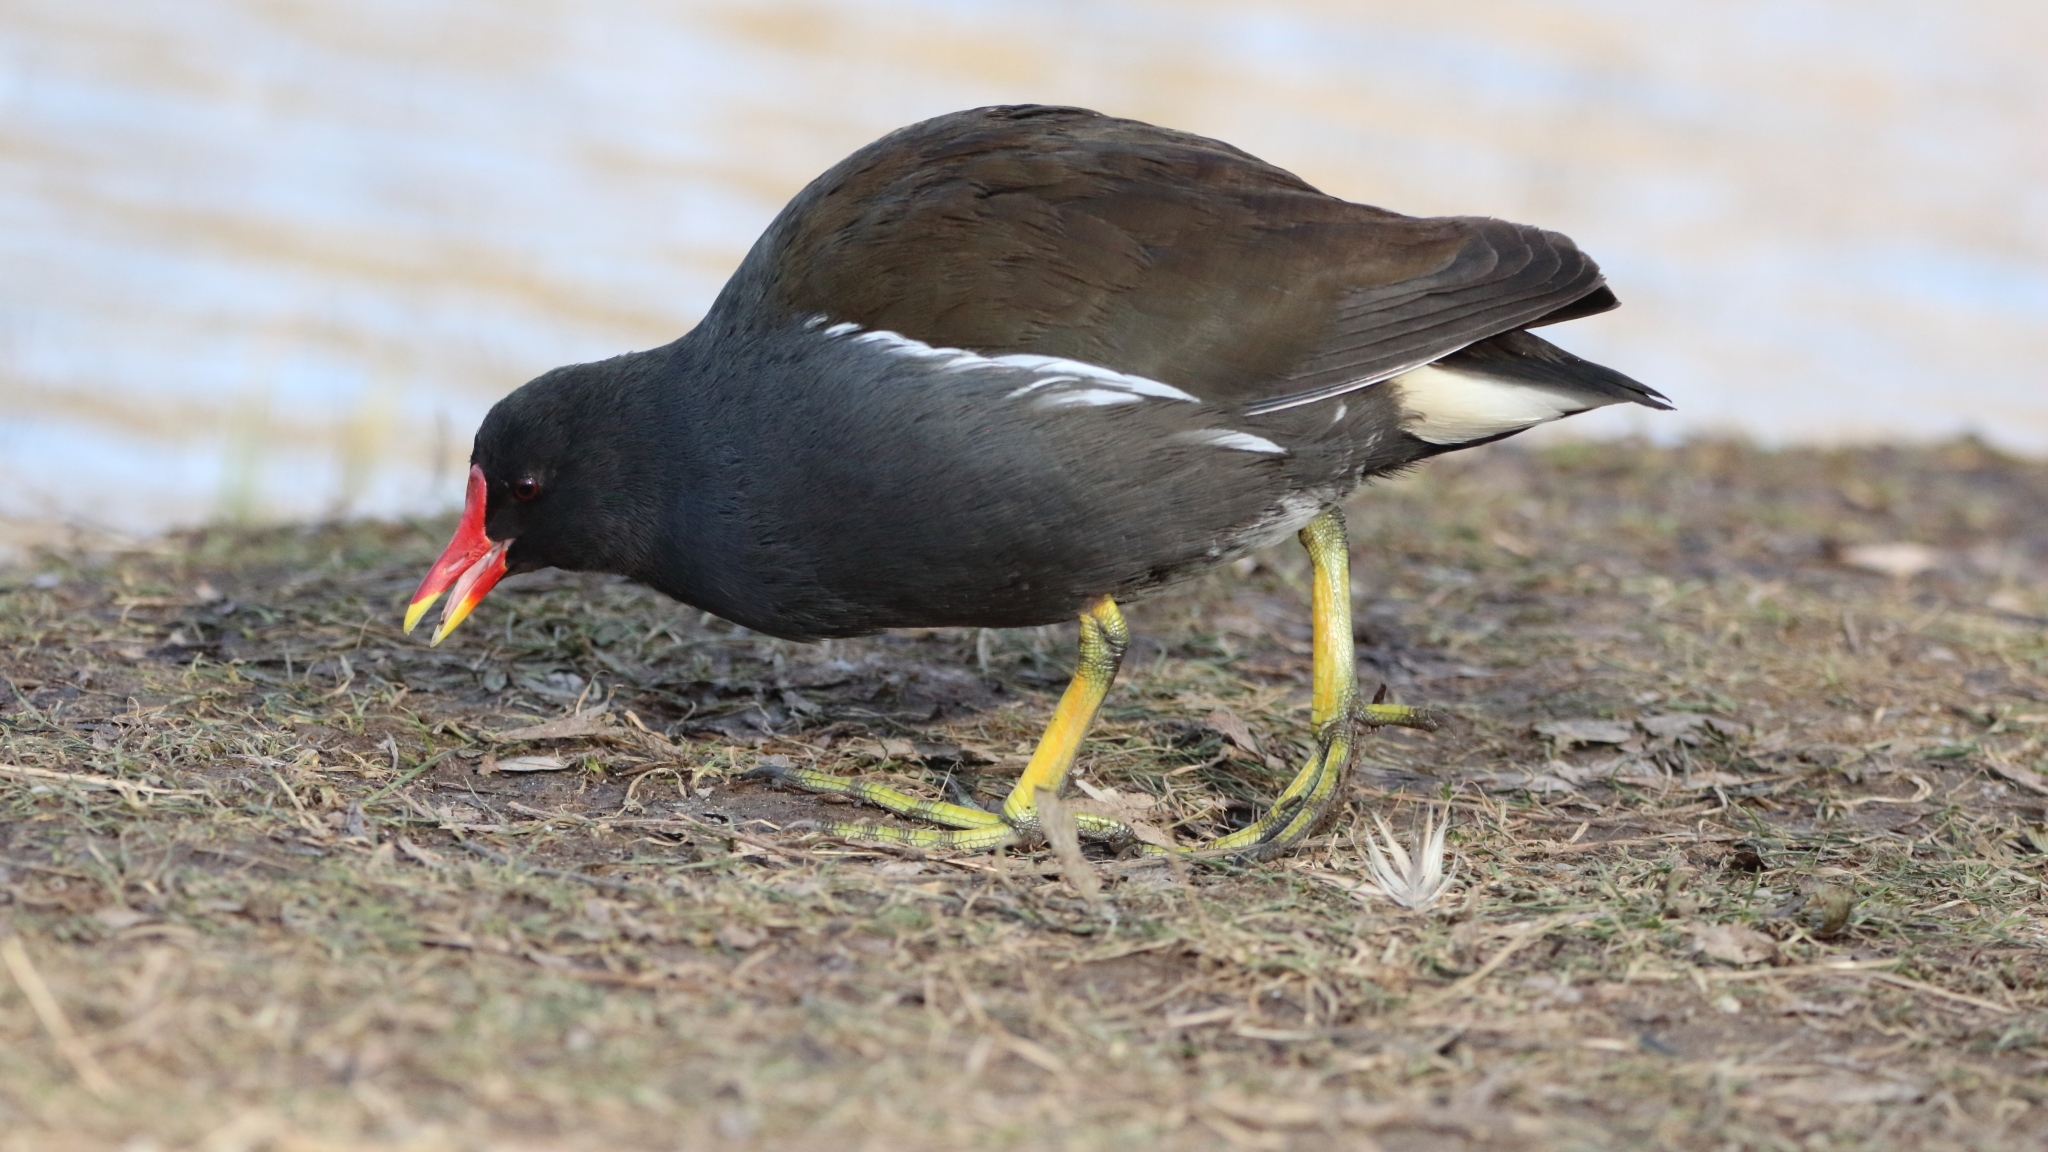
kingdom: Animalia
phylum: Chordata
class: Aves
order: Gruiformes
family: Rallidae
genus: Gallinula
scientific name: Gallinula chloropus
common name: Common moorhen
